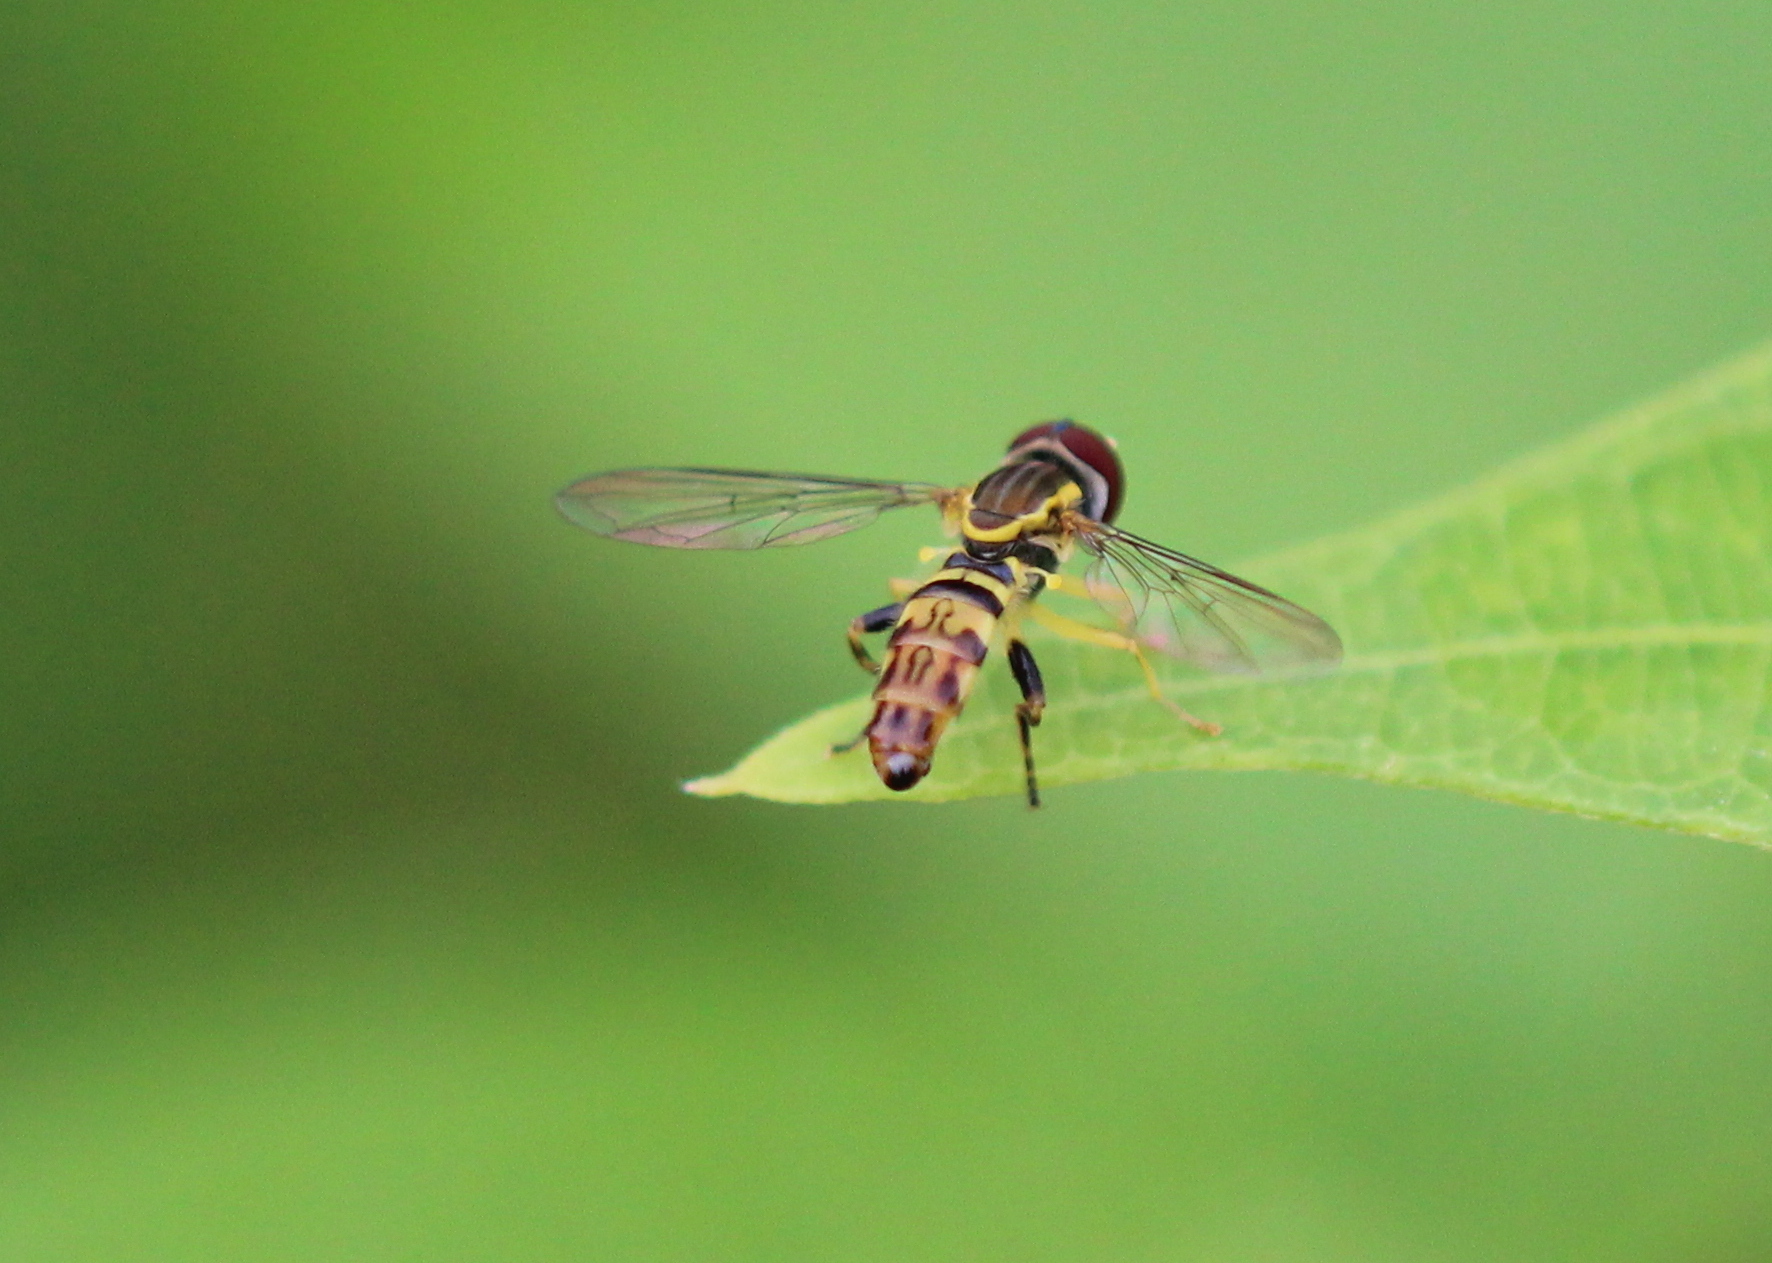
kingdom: Animalia
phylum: Arthropoda
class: Insecta
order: Diptera
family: Syrphidae
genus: Toxomerus
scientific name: Toxomerus geminatus
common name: Eastern calligrapher
